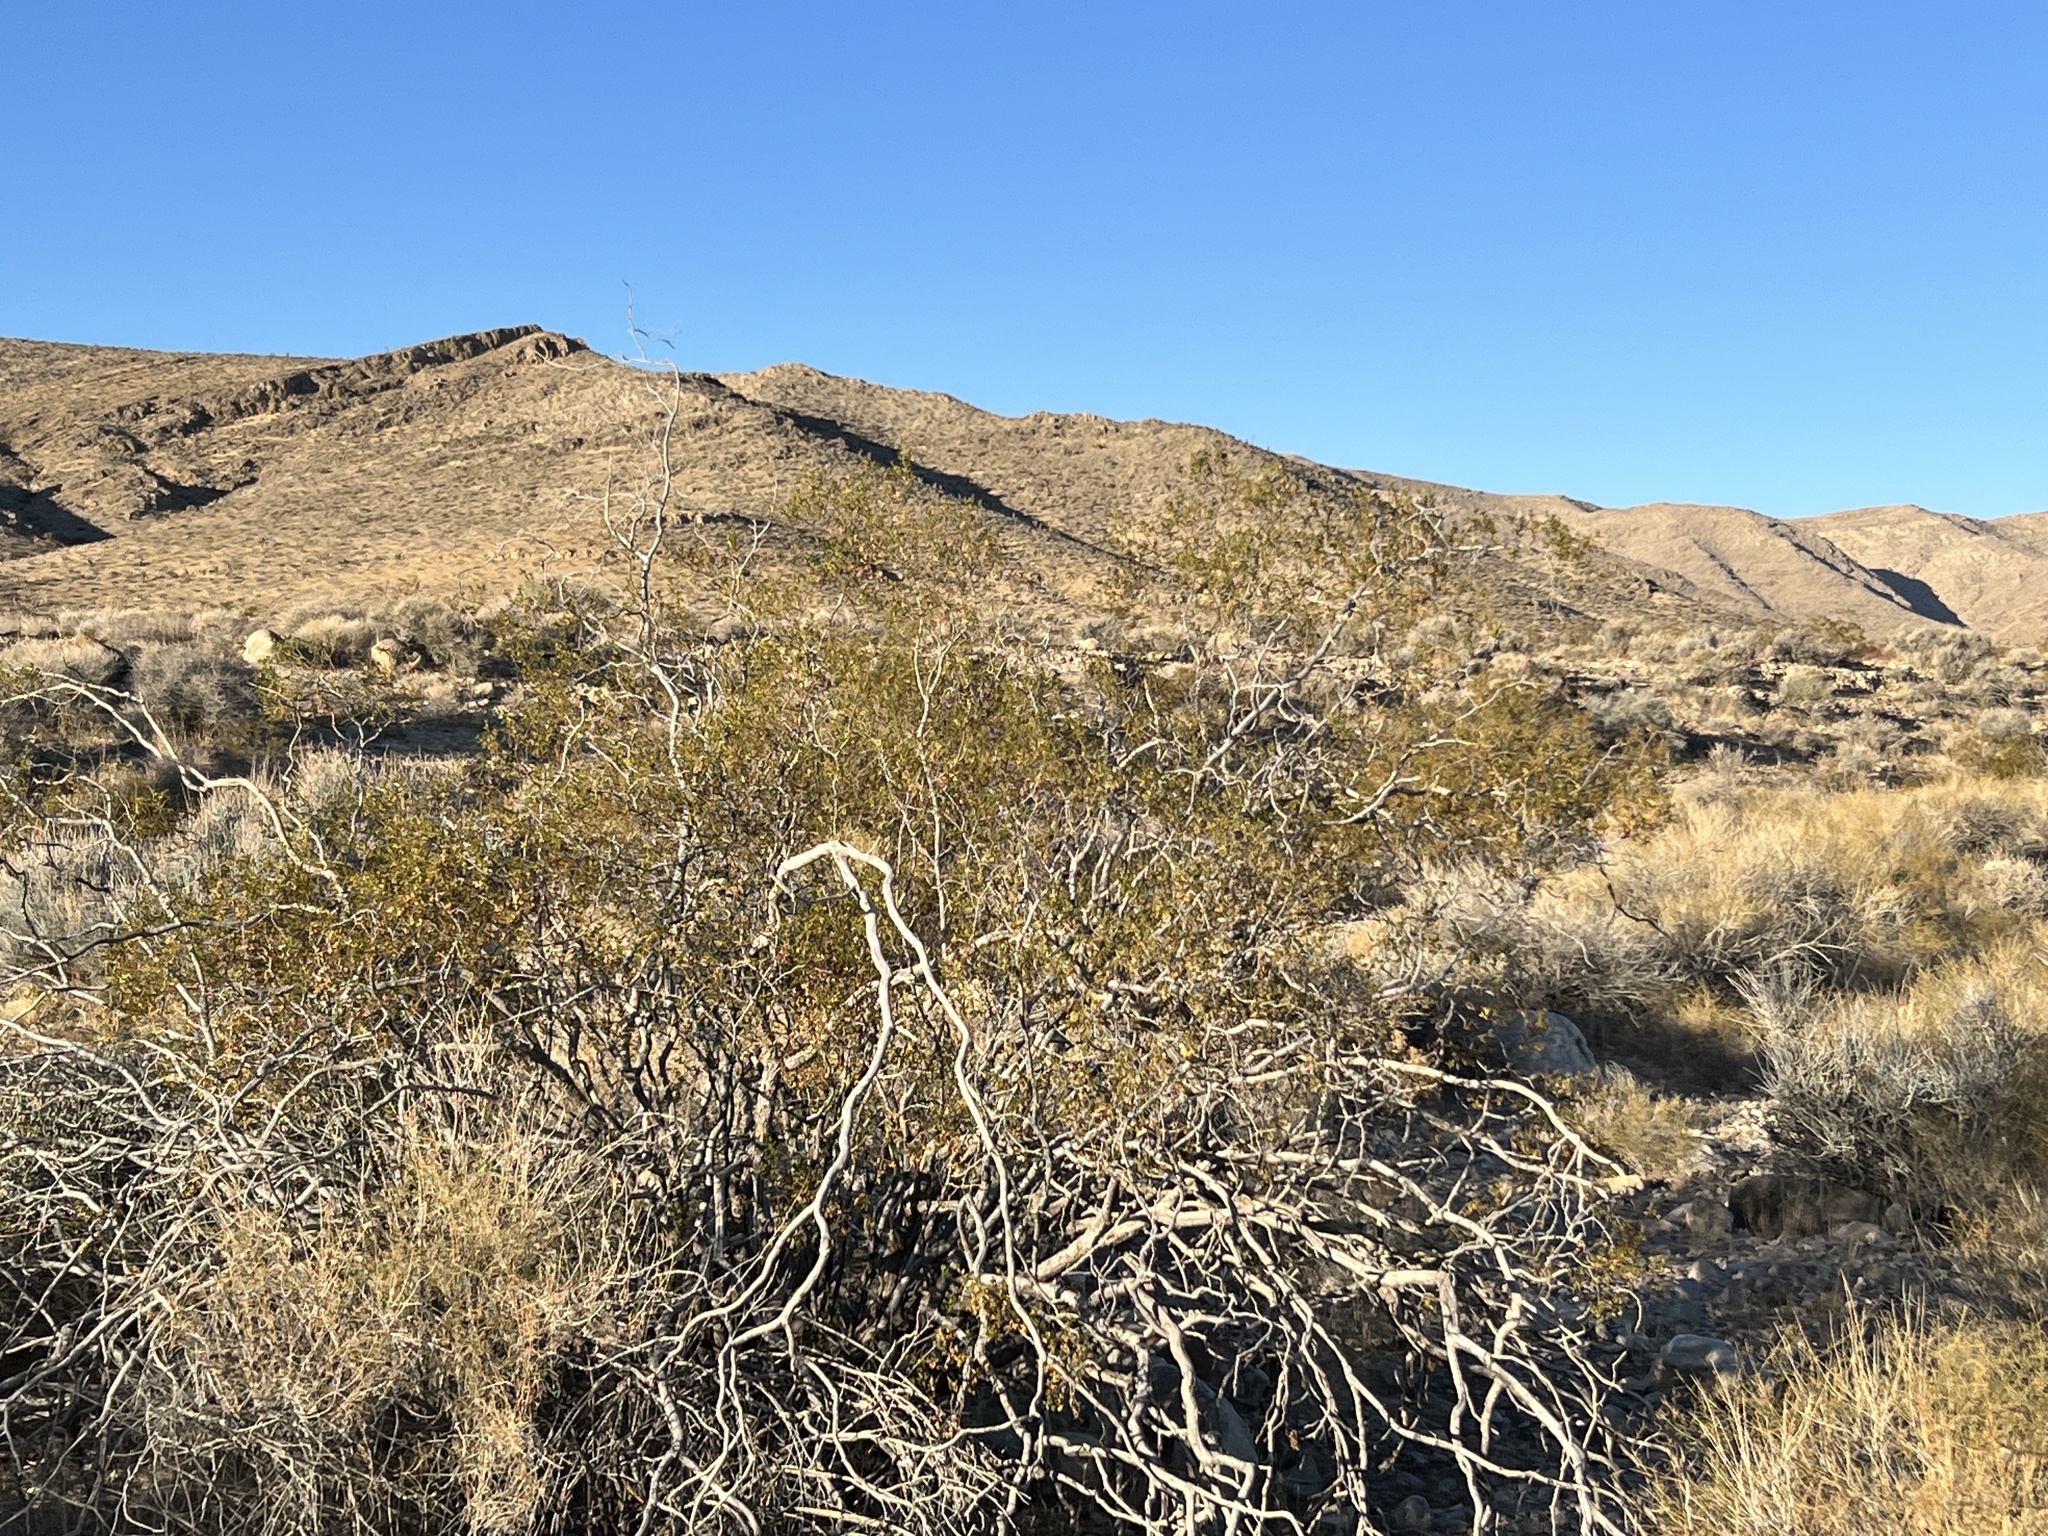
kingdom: Plantae
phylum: Tracheophyta
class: Magnoliopsida
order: Zygophyllales
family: Zygophyllaceae
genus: Larrea
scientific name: Larrea tridentata
